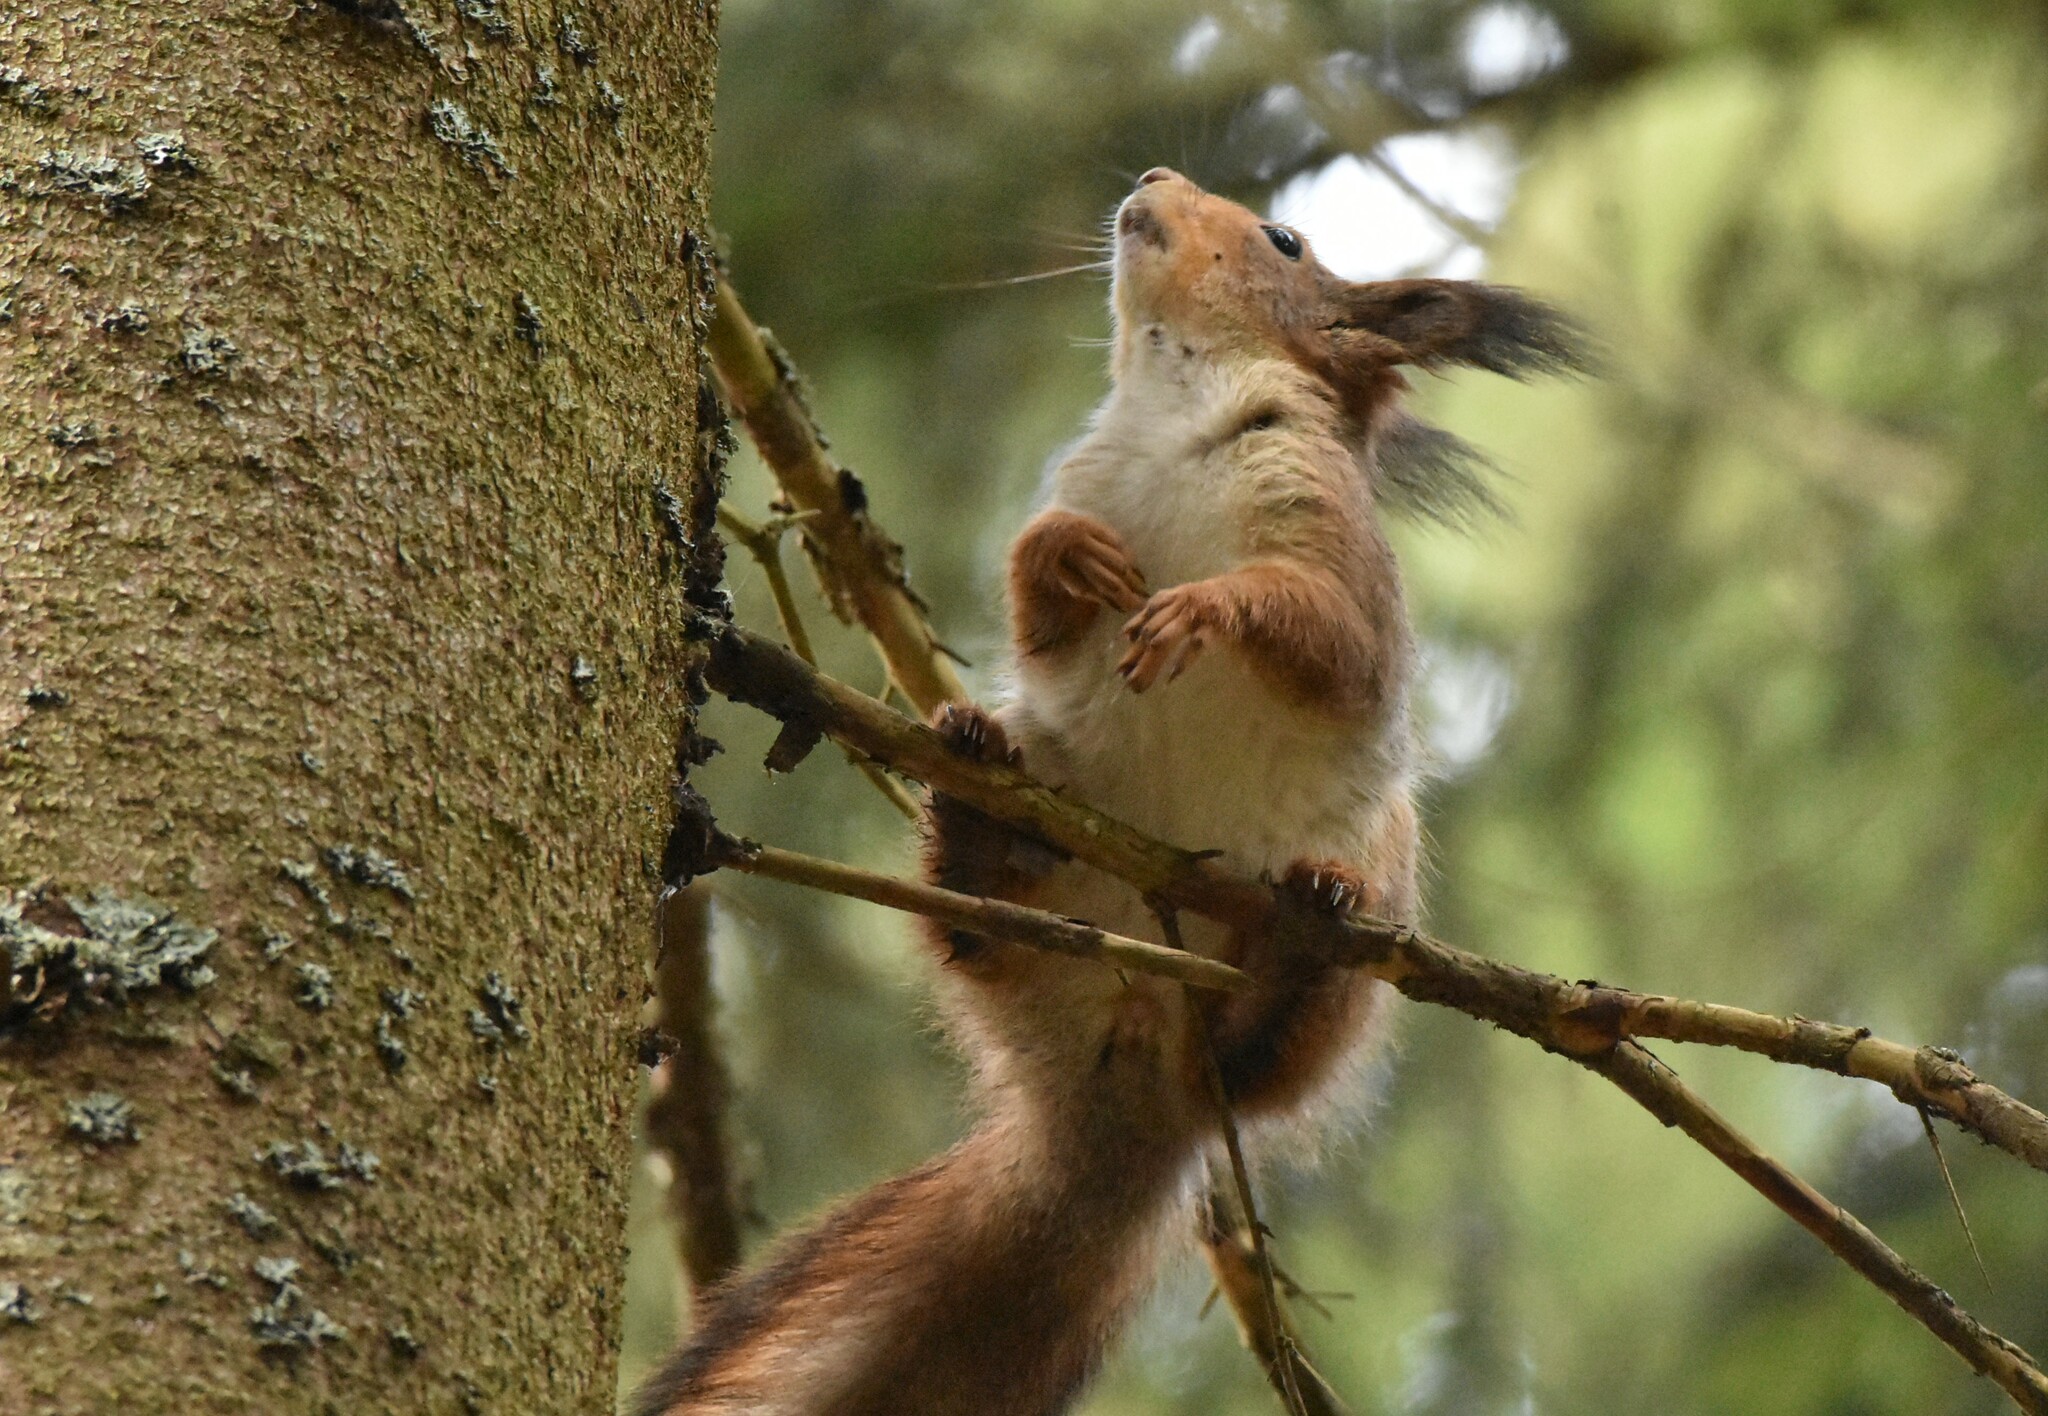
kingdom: Animalia
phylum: Chordata
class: Mammalia
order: Rodentia
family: Sciuridae
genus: Sciurus
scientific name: Sciurus vulgaris
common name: Eurasian red squirrel
